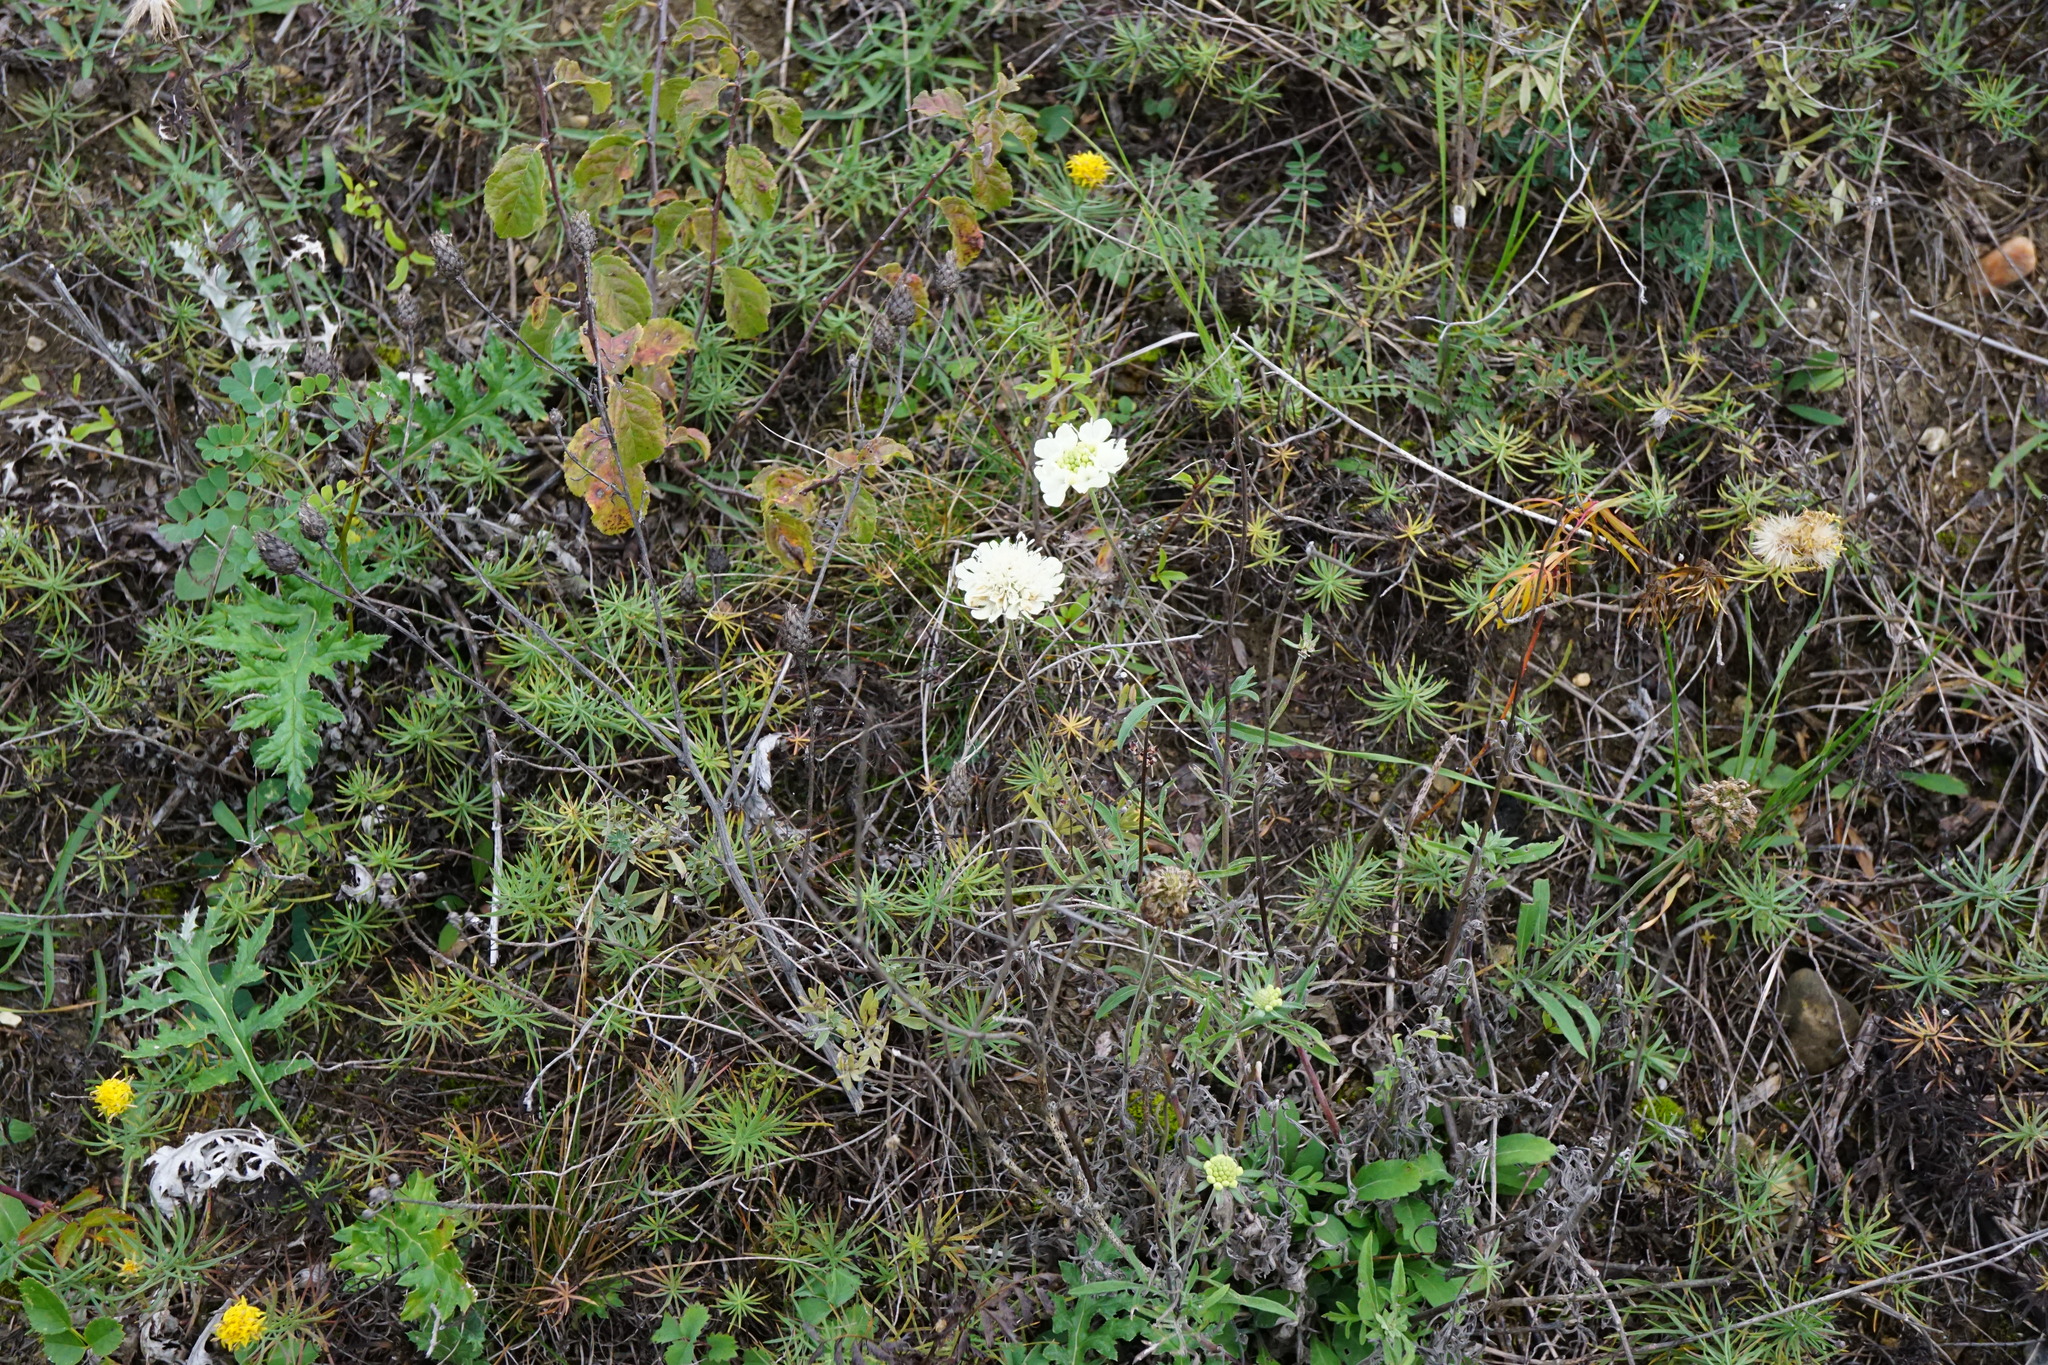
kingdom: Plantae
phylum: Tracheophyta
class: Magnoliopsida
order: Dipsacales
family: Caprifoliaceae
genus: Scabiosa
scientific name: Scabiosa ochroleuca
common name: Cream pincushions
